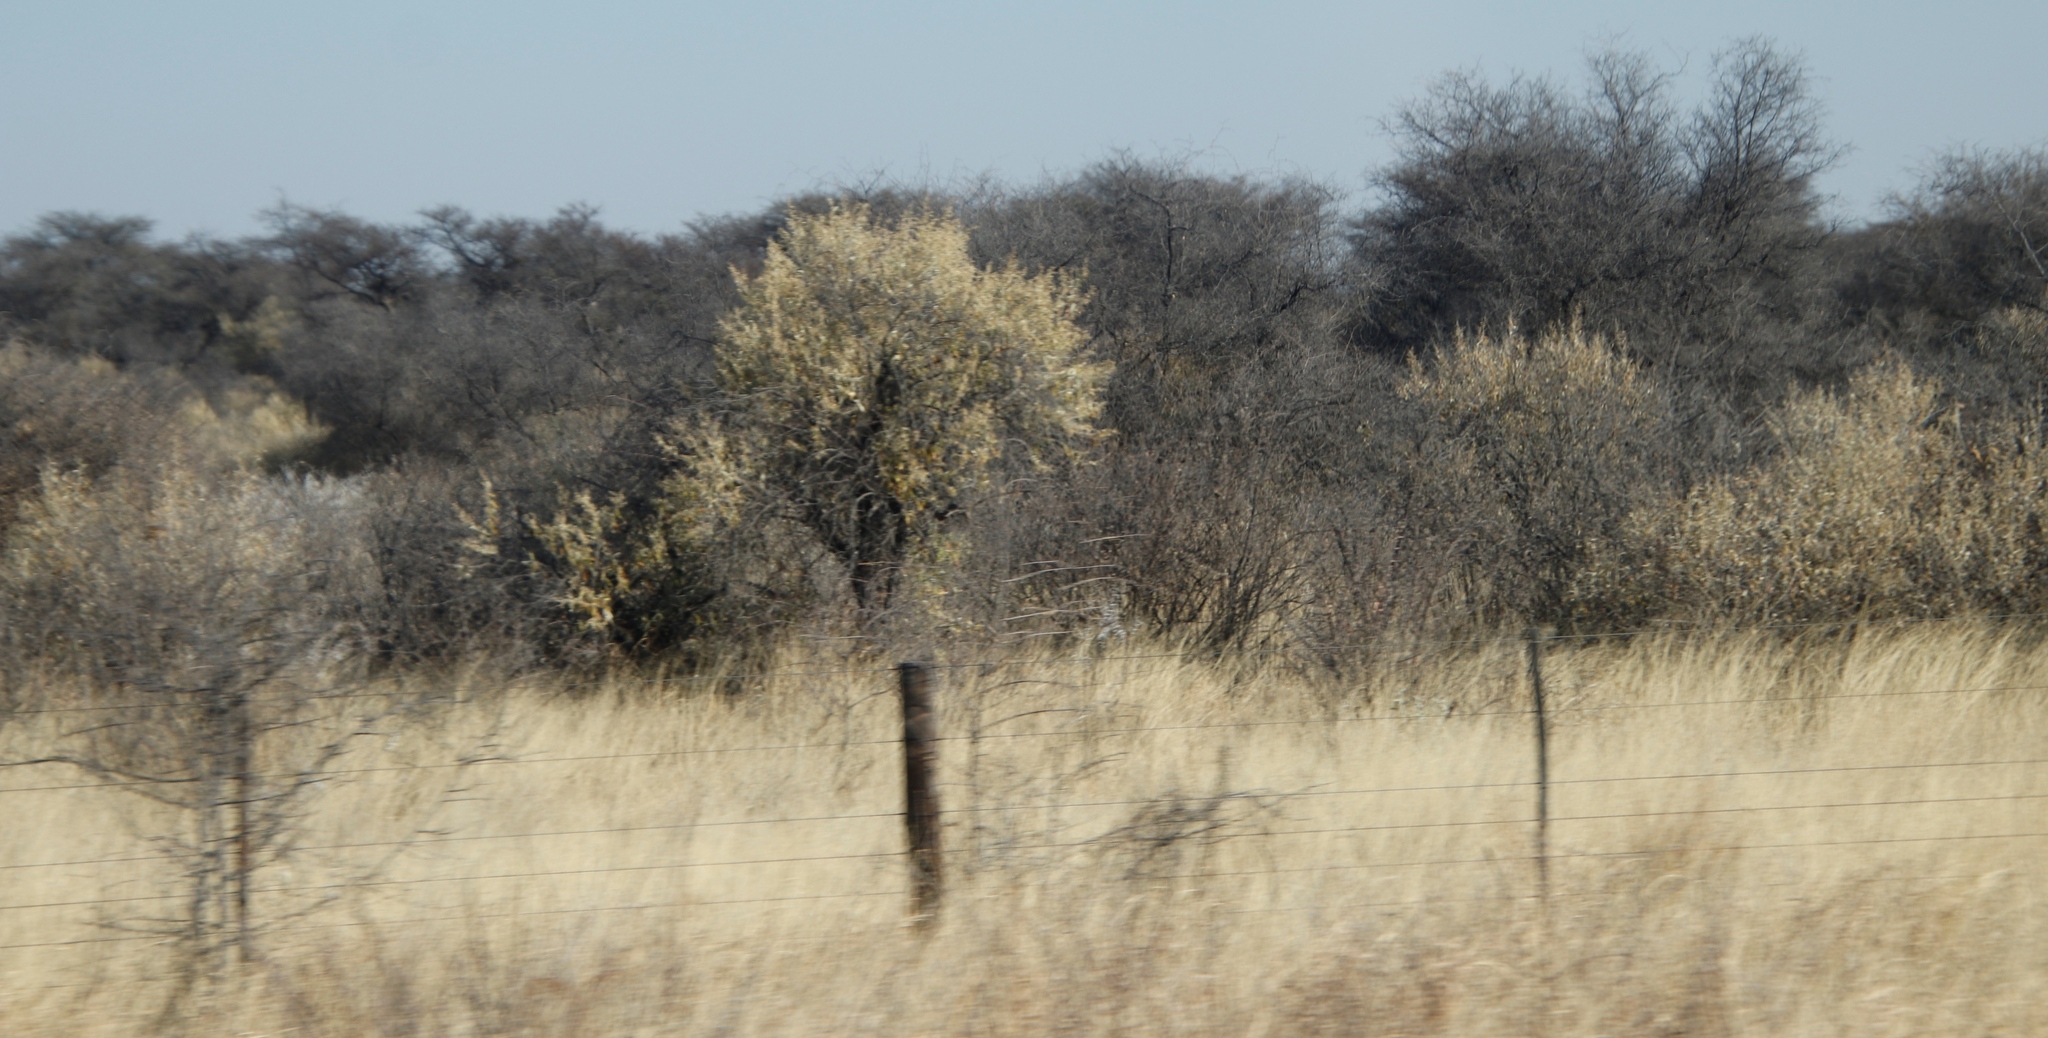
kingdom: Plantae
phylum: Tracheophyta
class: Magnoliopsida
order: Fabales
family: Fabaceae
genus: Senegalia
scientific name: Senegalia mellifera
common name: Hookthorn
